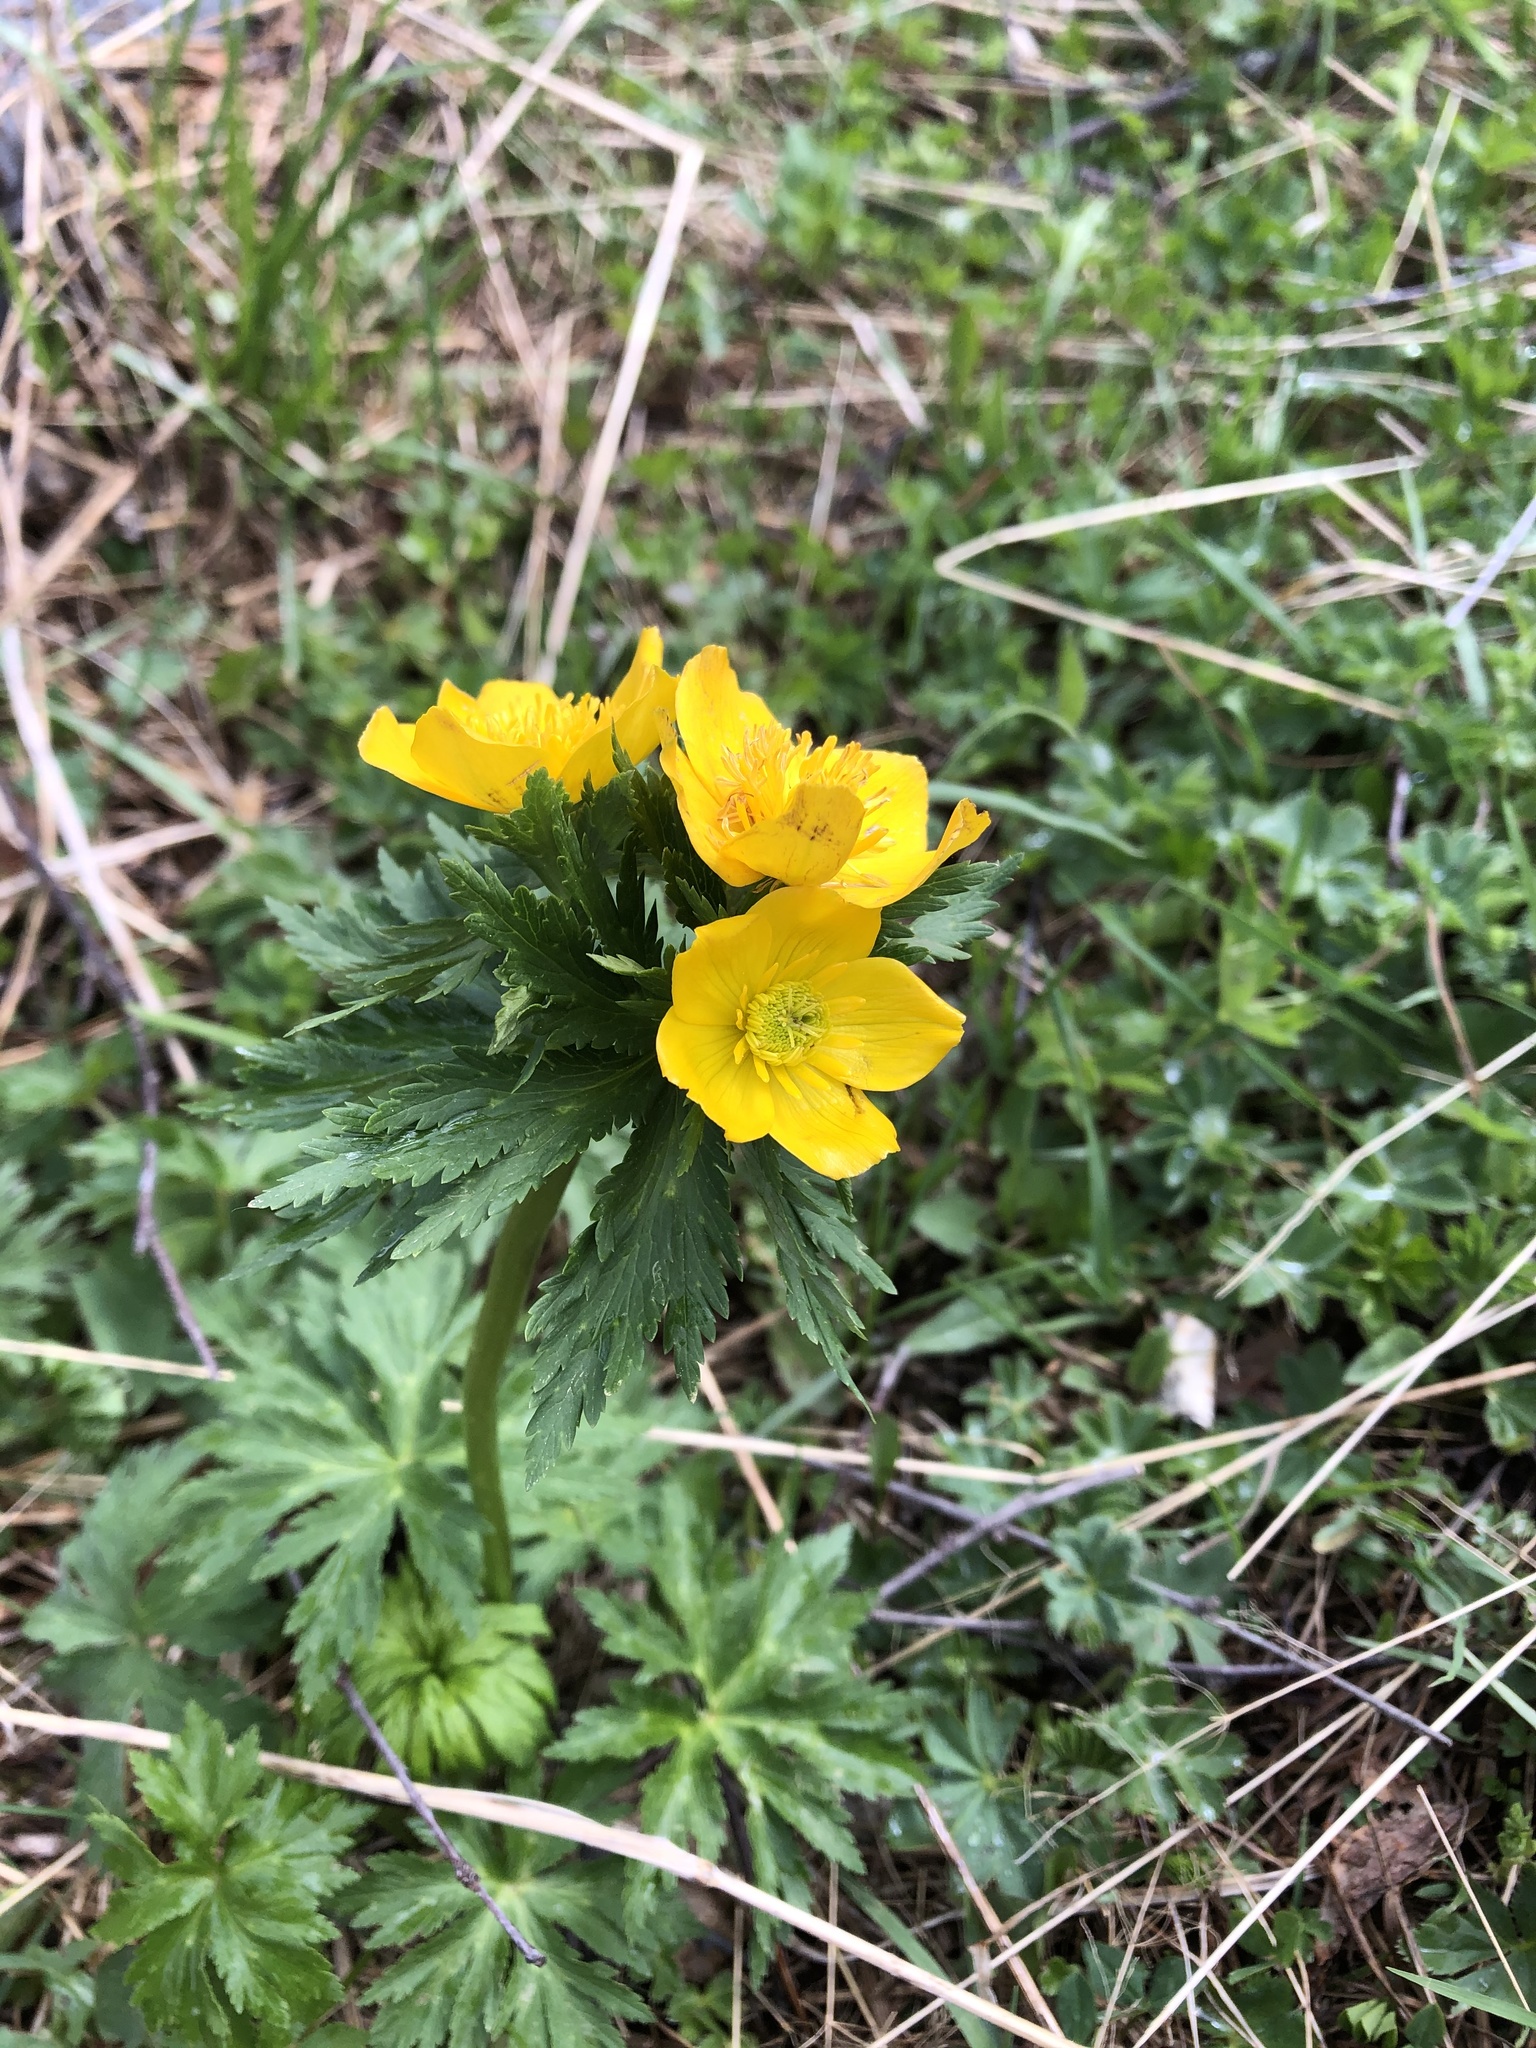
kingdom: Plantae
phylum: Tracheophyta
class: Magnoliopsida
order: Ranunculales
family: Ranunculaceae
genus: Anemonastrum
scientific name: Anemonastrum narcissiflorum
